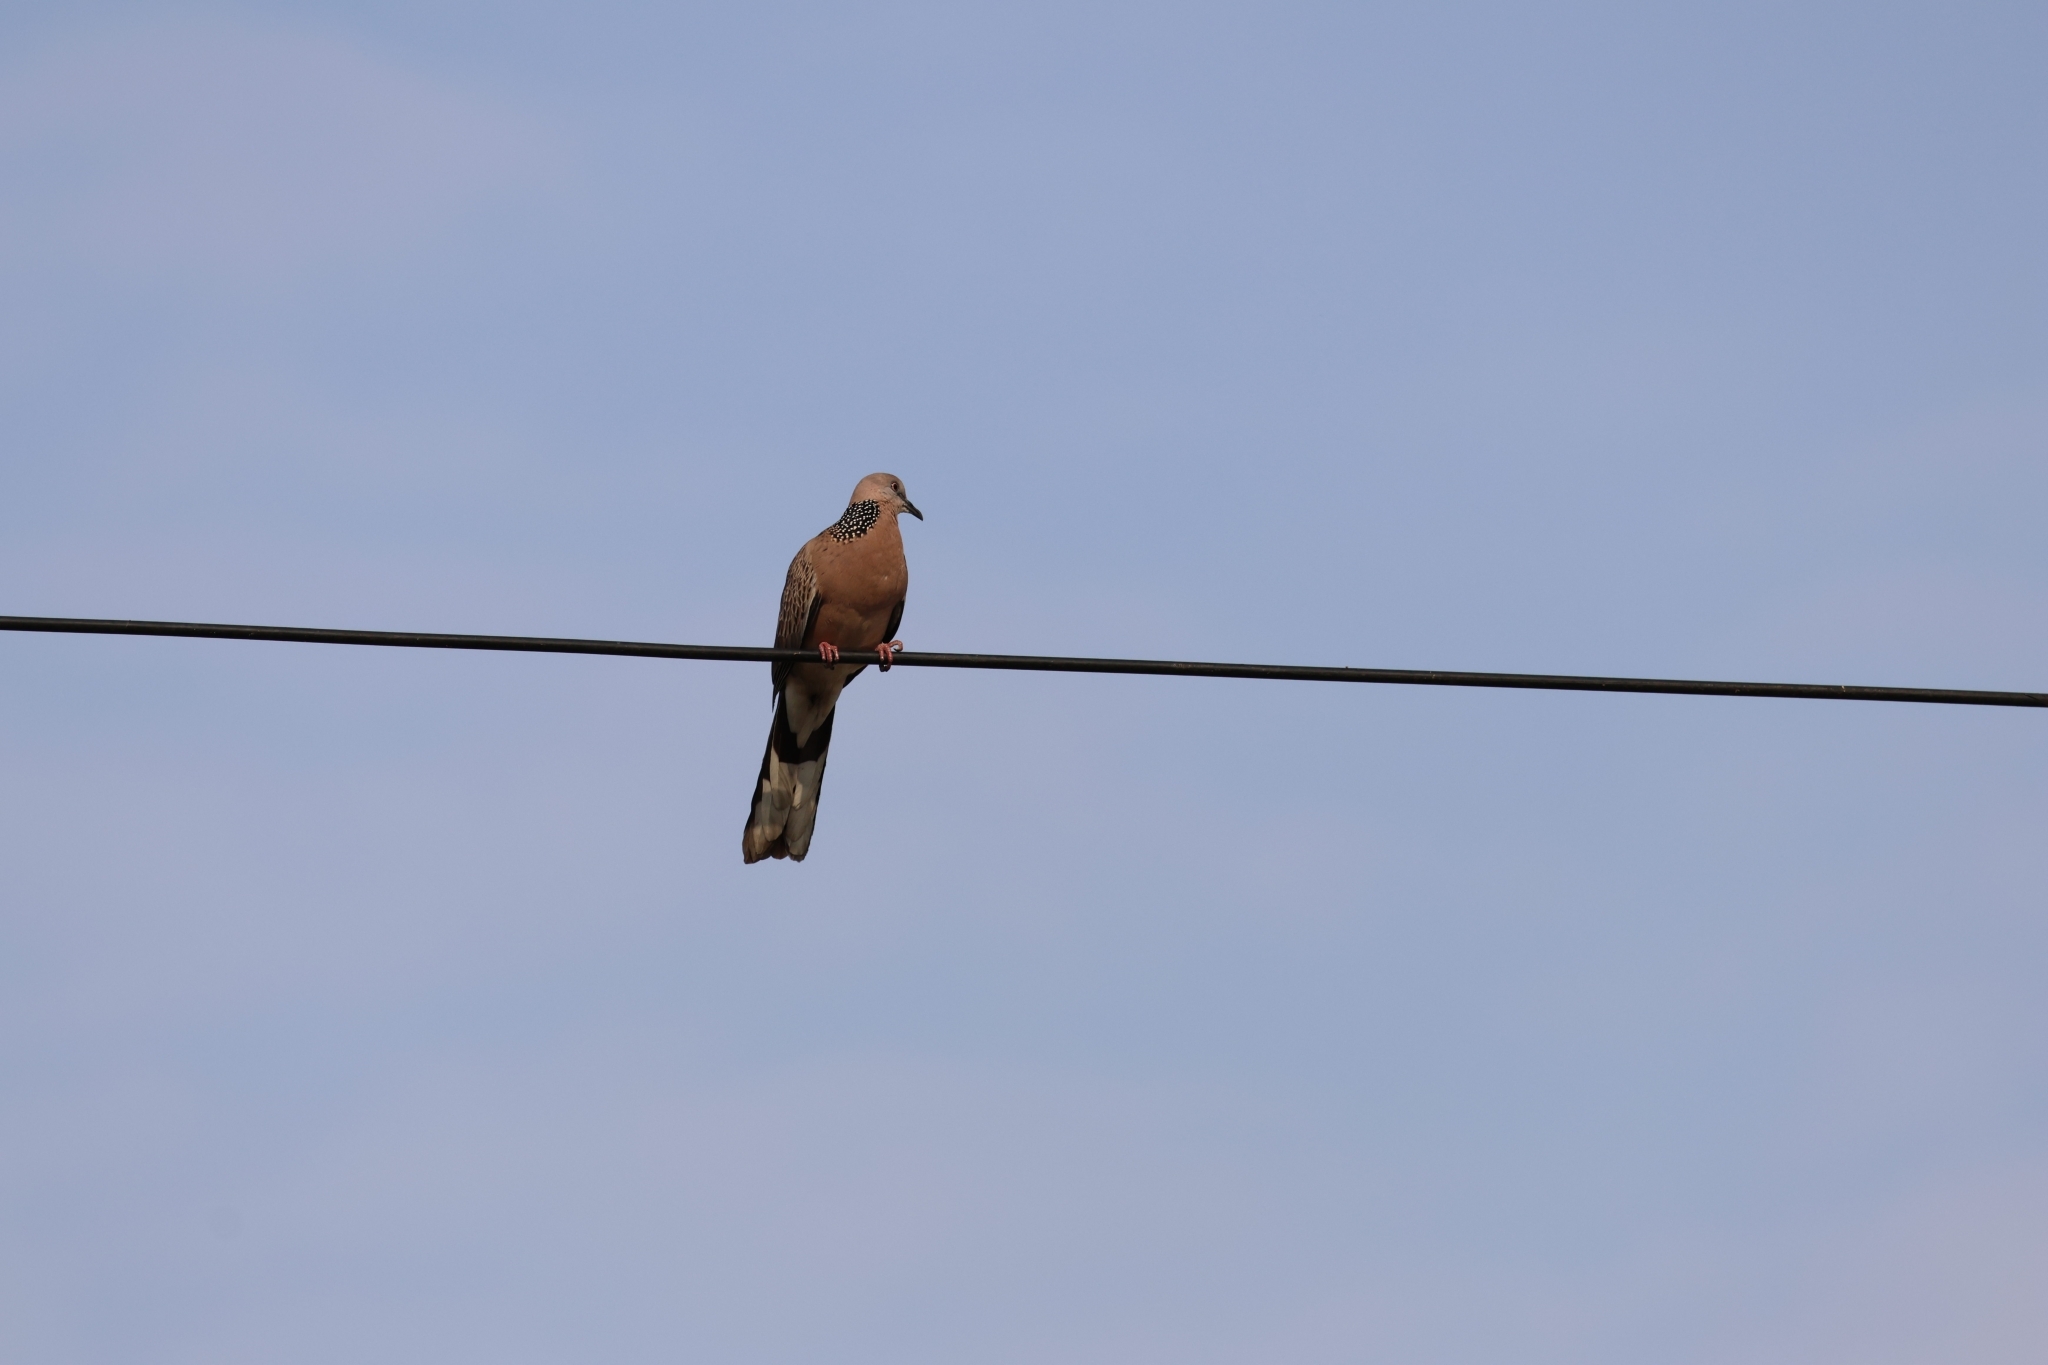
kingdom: Animalia
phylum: Chordata
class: Aves
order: Columbiformes
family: Columbidae
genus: Spilopelia
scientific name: Spilopelia chinensis
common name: Spotted dove
